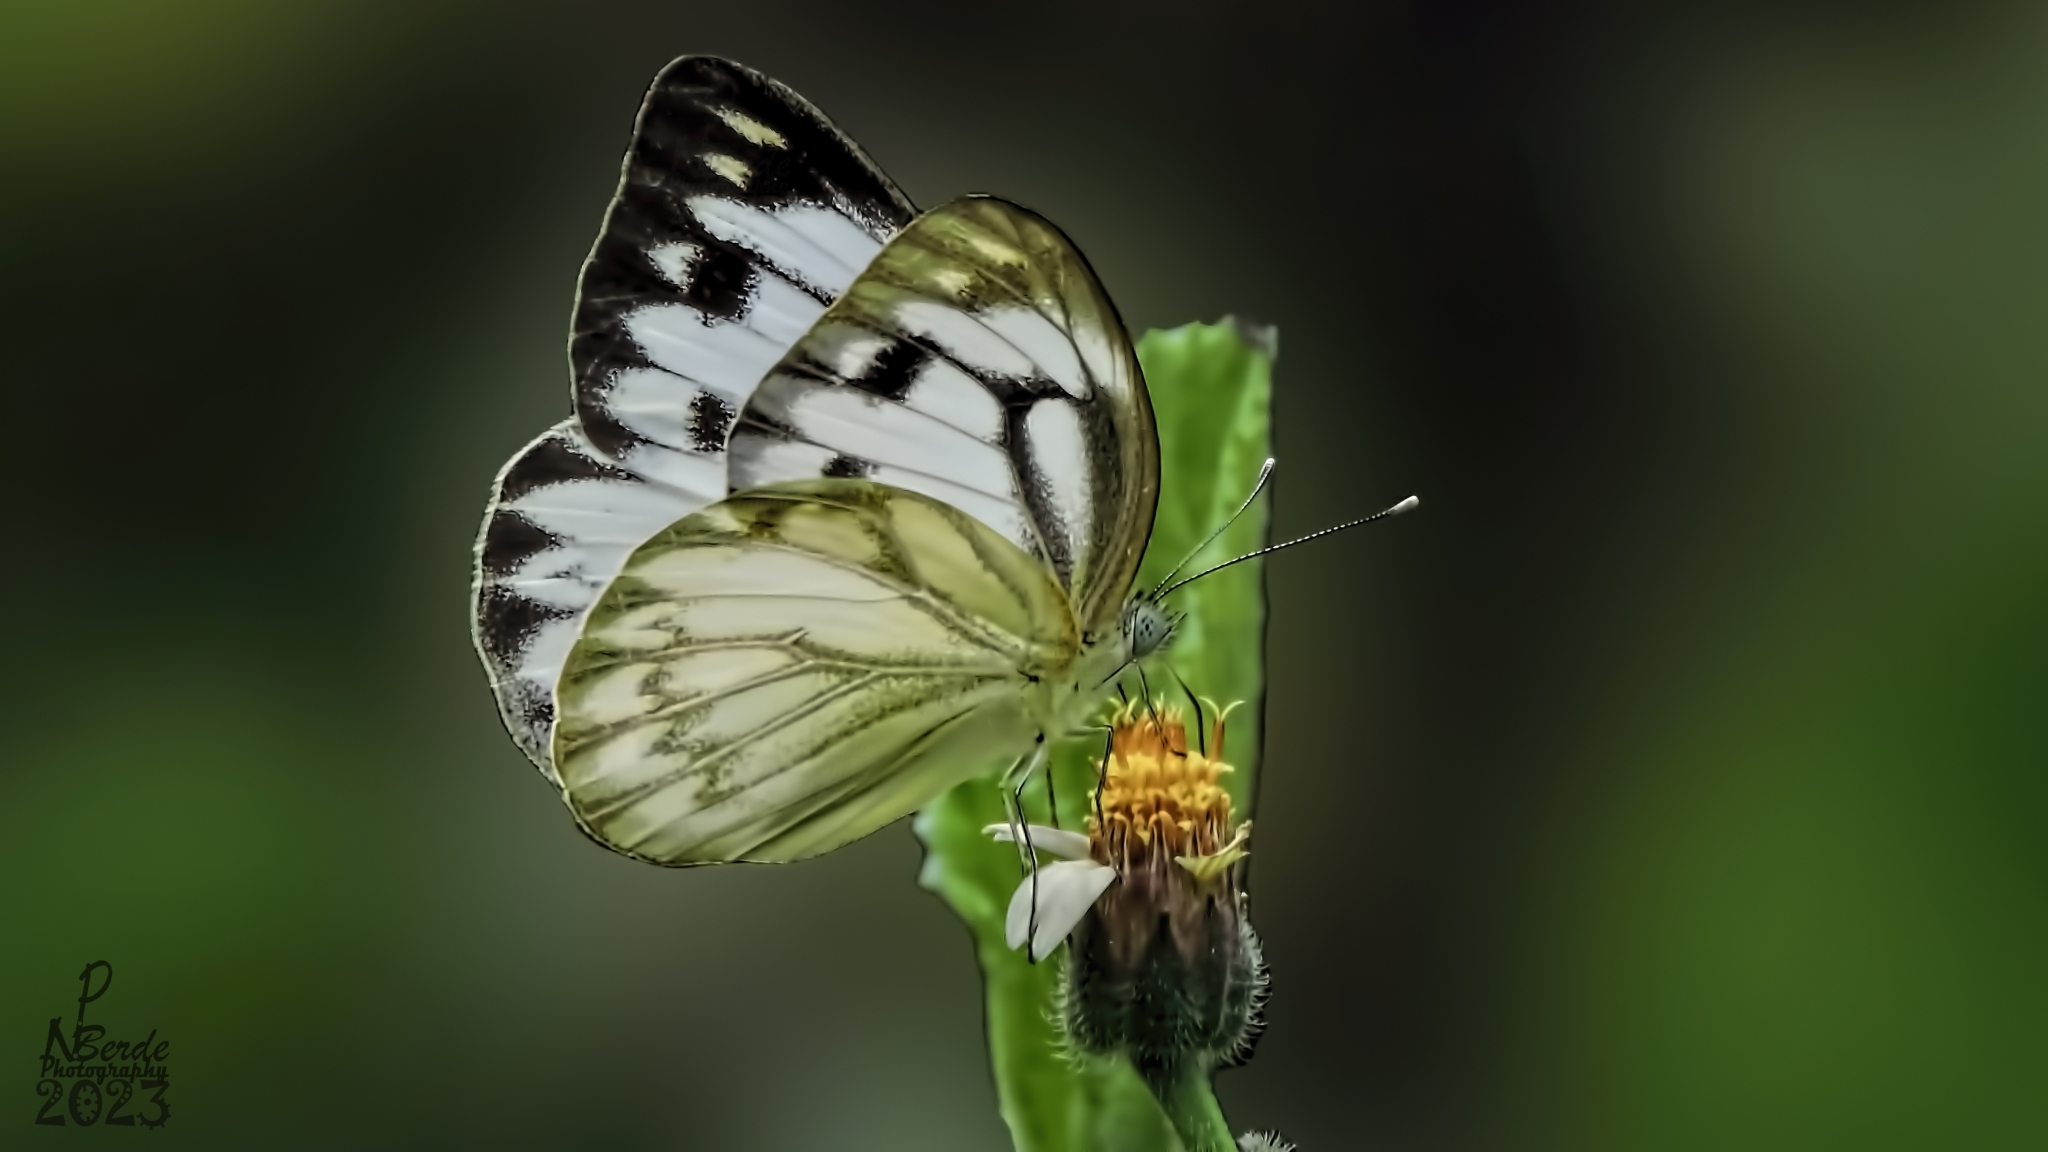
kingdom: Animalia
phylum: Arthropoda
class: Insecta
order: Lepidoptera
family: Pieridae
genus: Cepora
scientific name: Cepora nerissa
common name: Common gull
